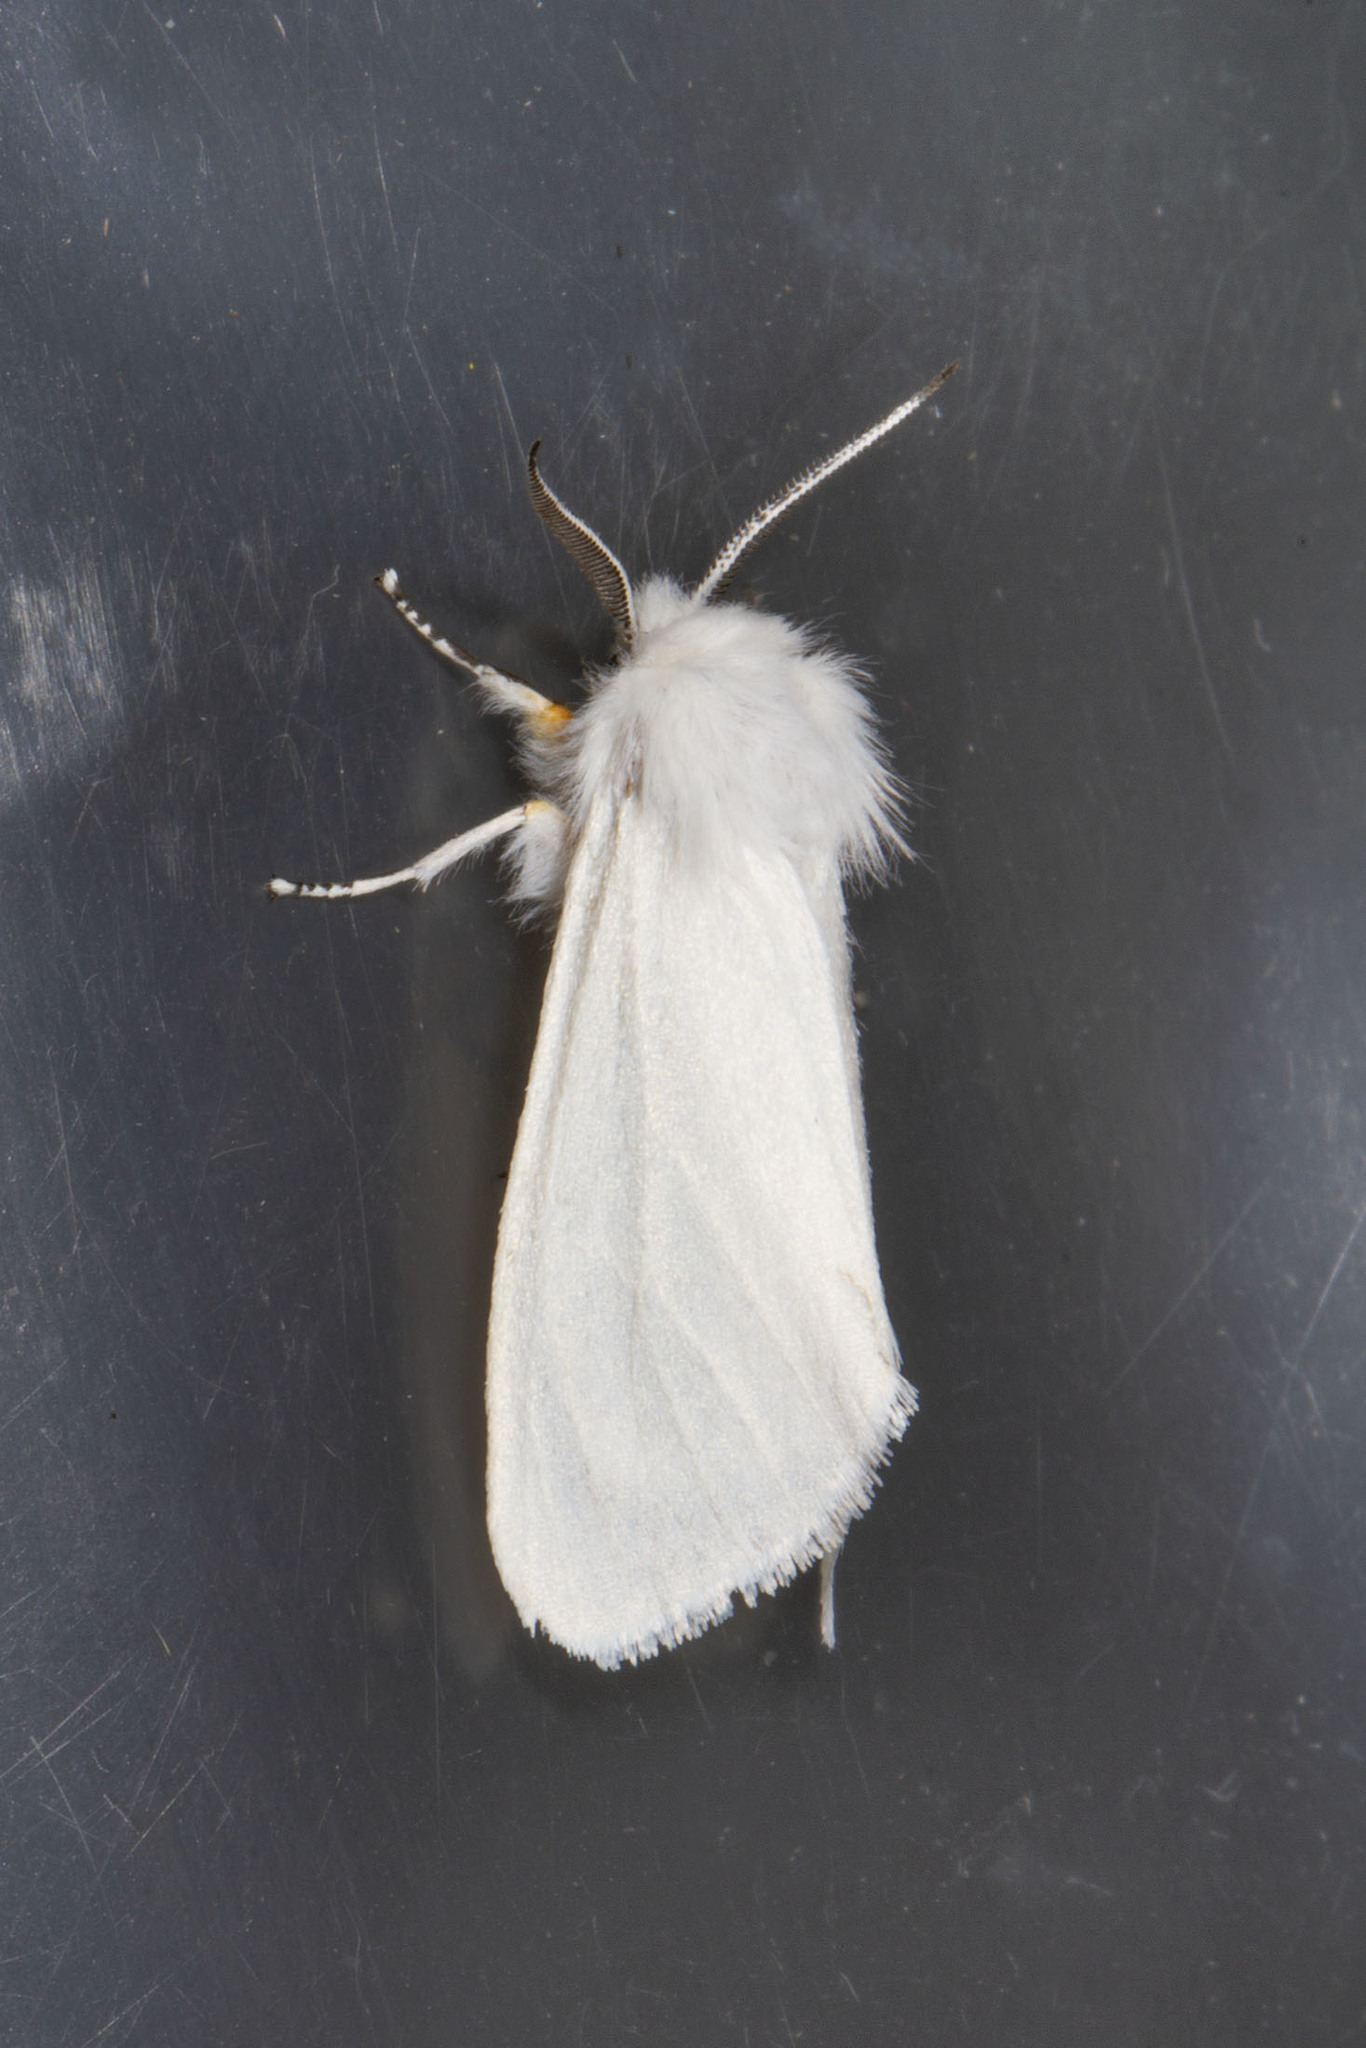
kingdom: Animalia
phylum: Arthropoda
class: Insecta
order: Lepidoptera
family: Erebidae
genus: Hyphantria
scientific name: Hyphantria cunea
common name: American white moth
